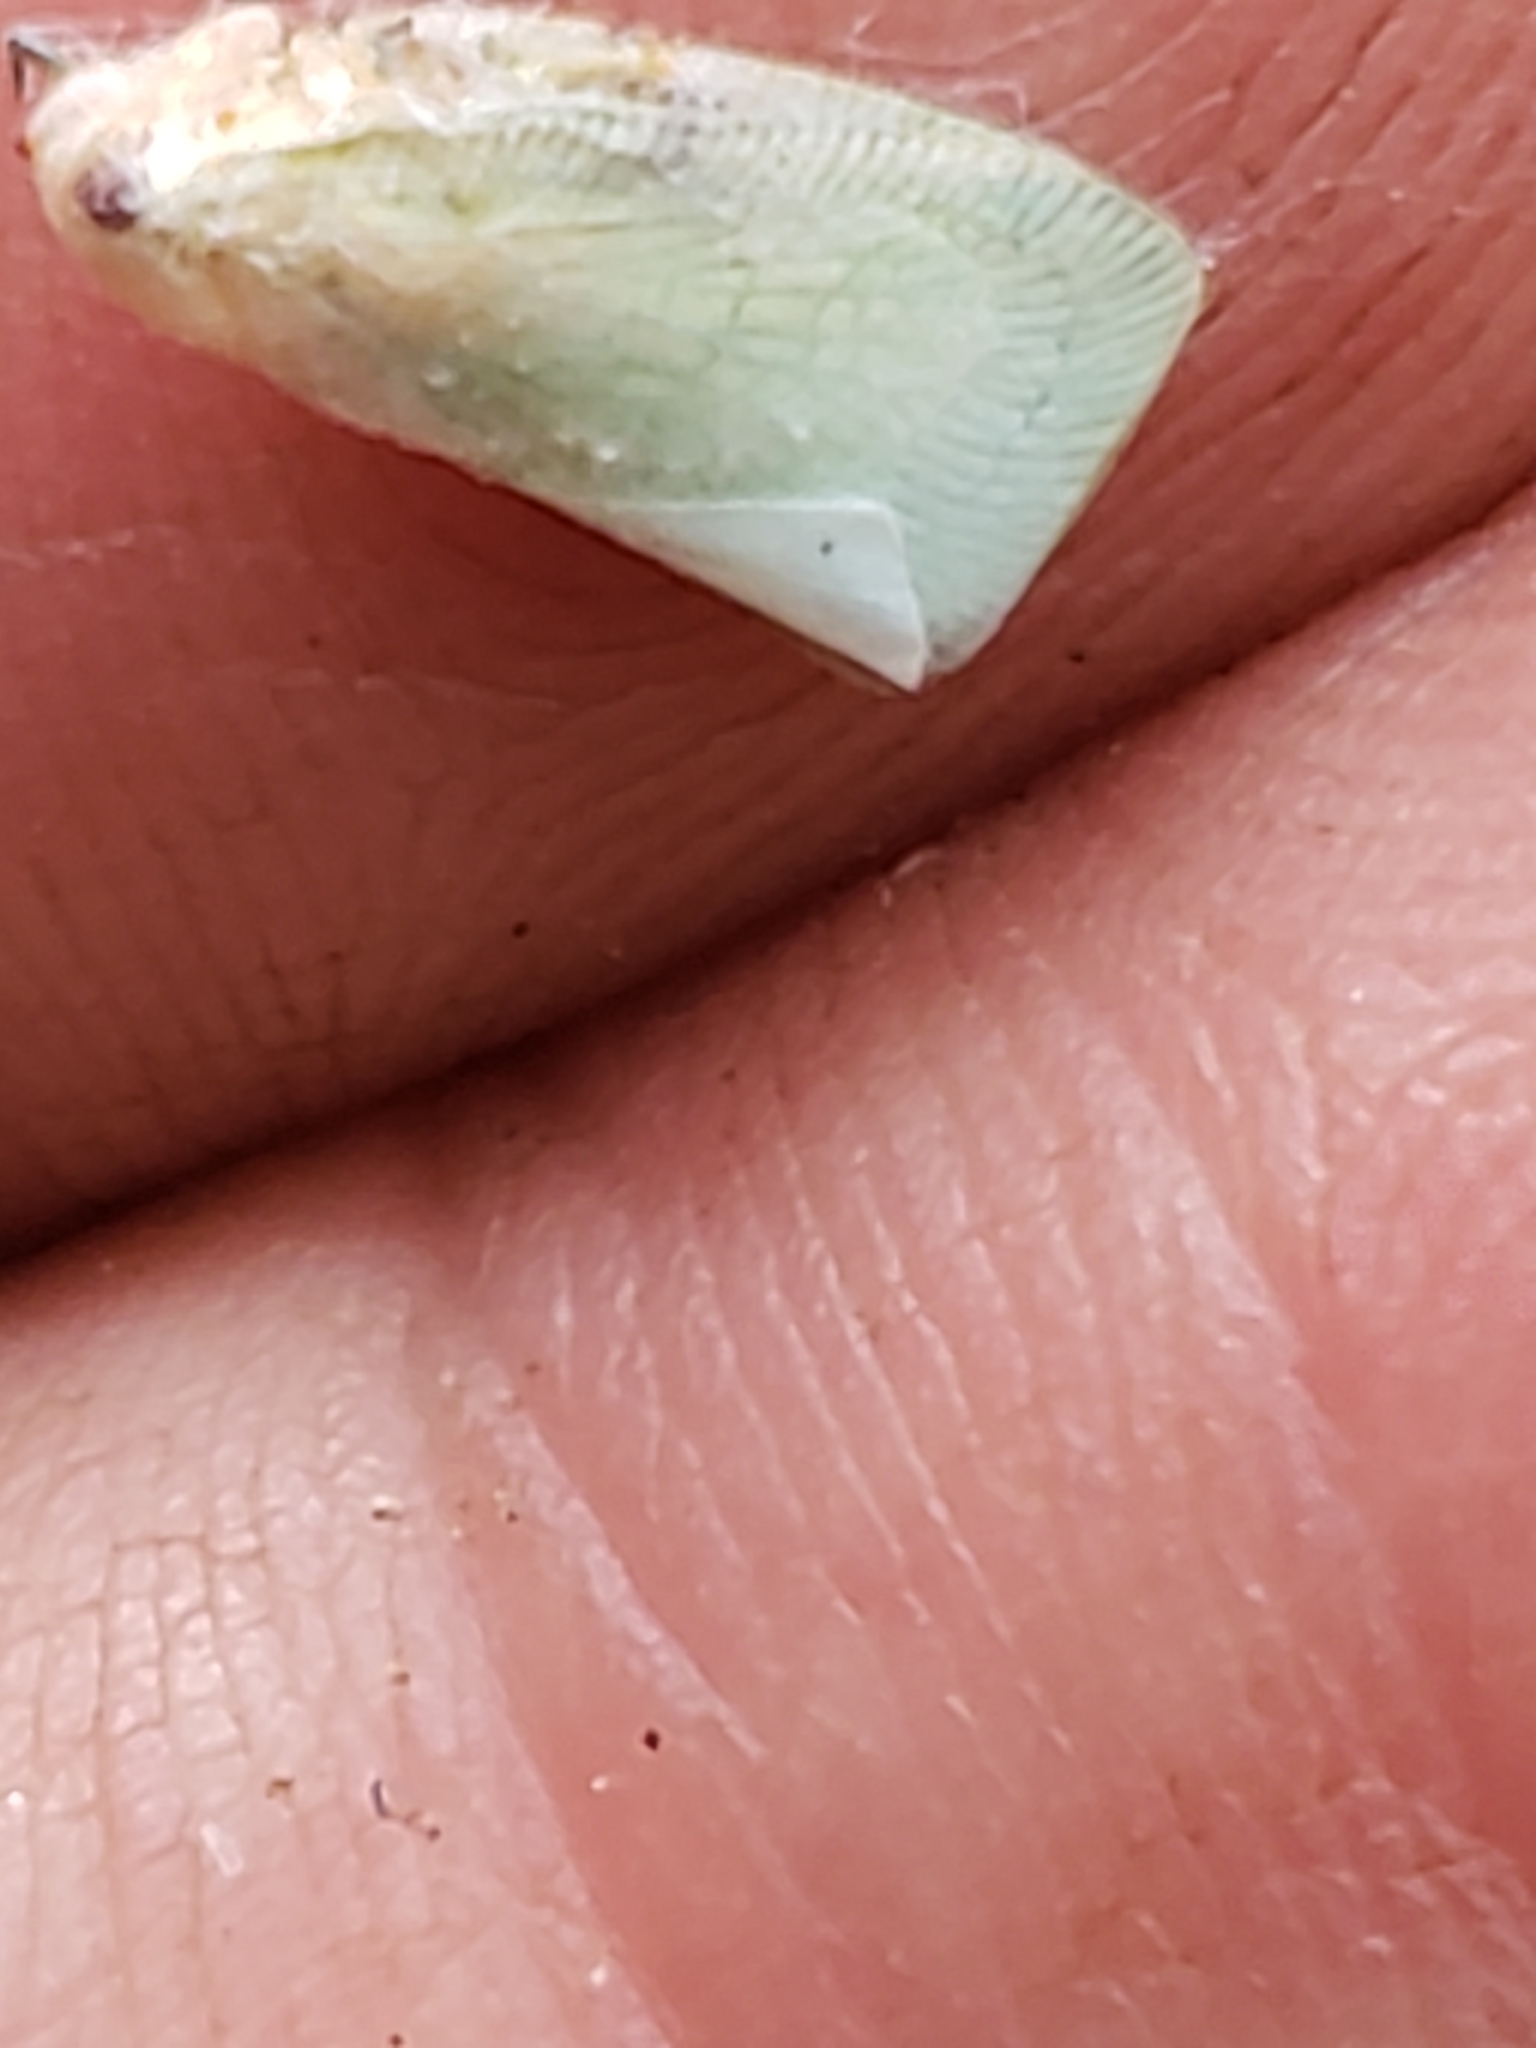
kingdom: Animalia
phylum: Arthropoda
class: Insecta
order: Hemiptera
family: Flatidae
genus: Flatormenis
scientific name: Flatormenis proxima
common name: Northern flatid planthopper
